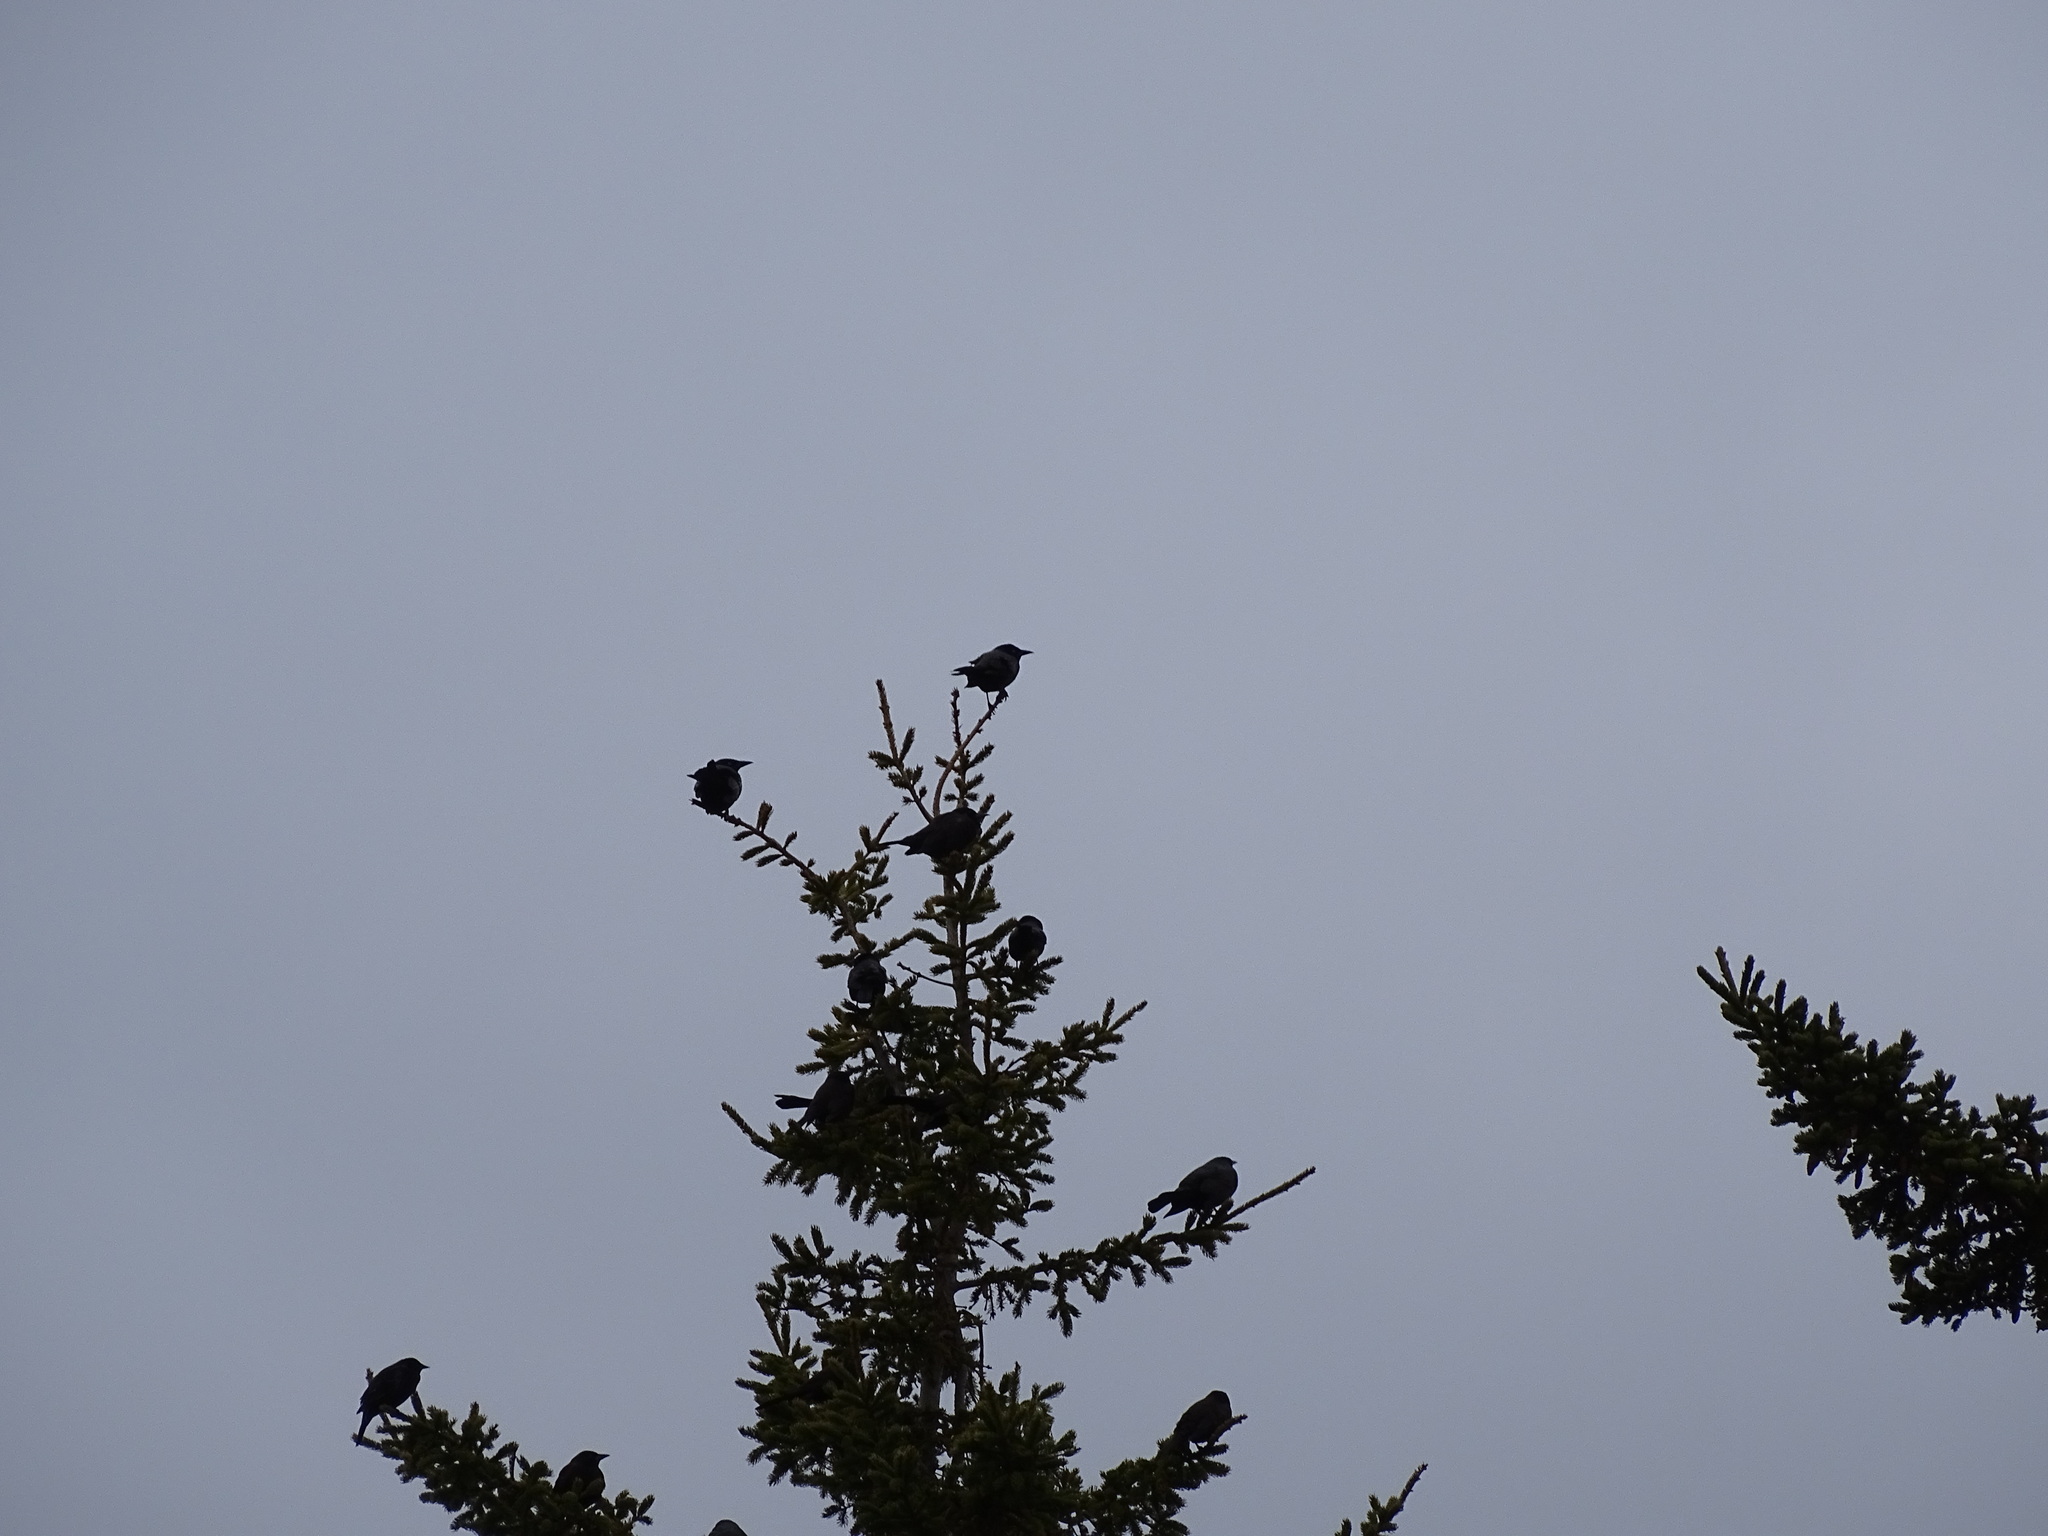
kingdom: Animalia
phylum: Chordata
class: Aves
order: Passeriformes
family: Icteridae
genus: Quiscalus
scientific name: Quiscalus quiscula
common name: Common grackle
